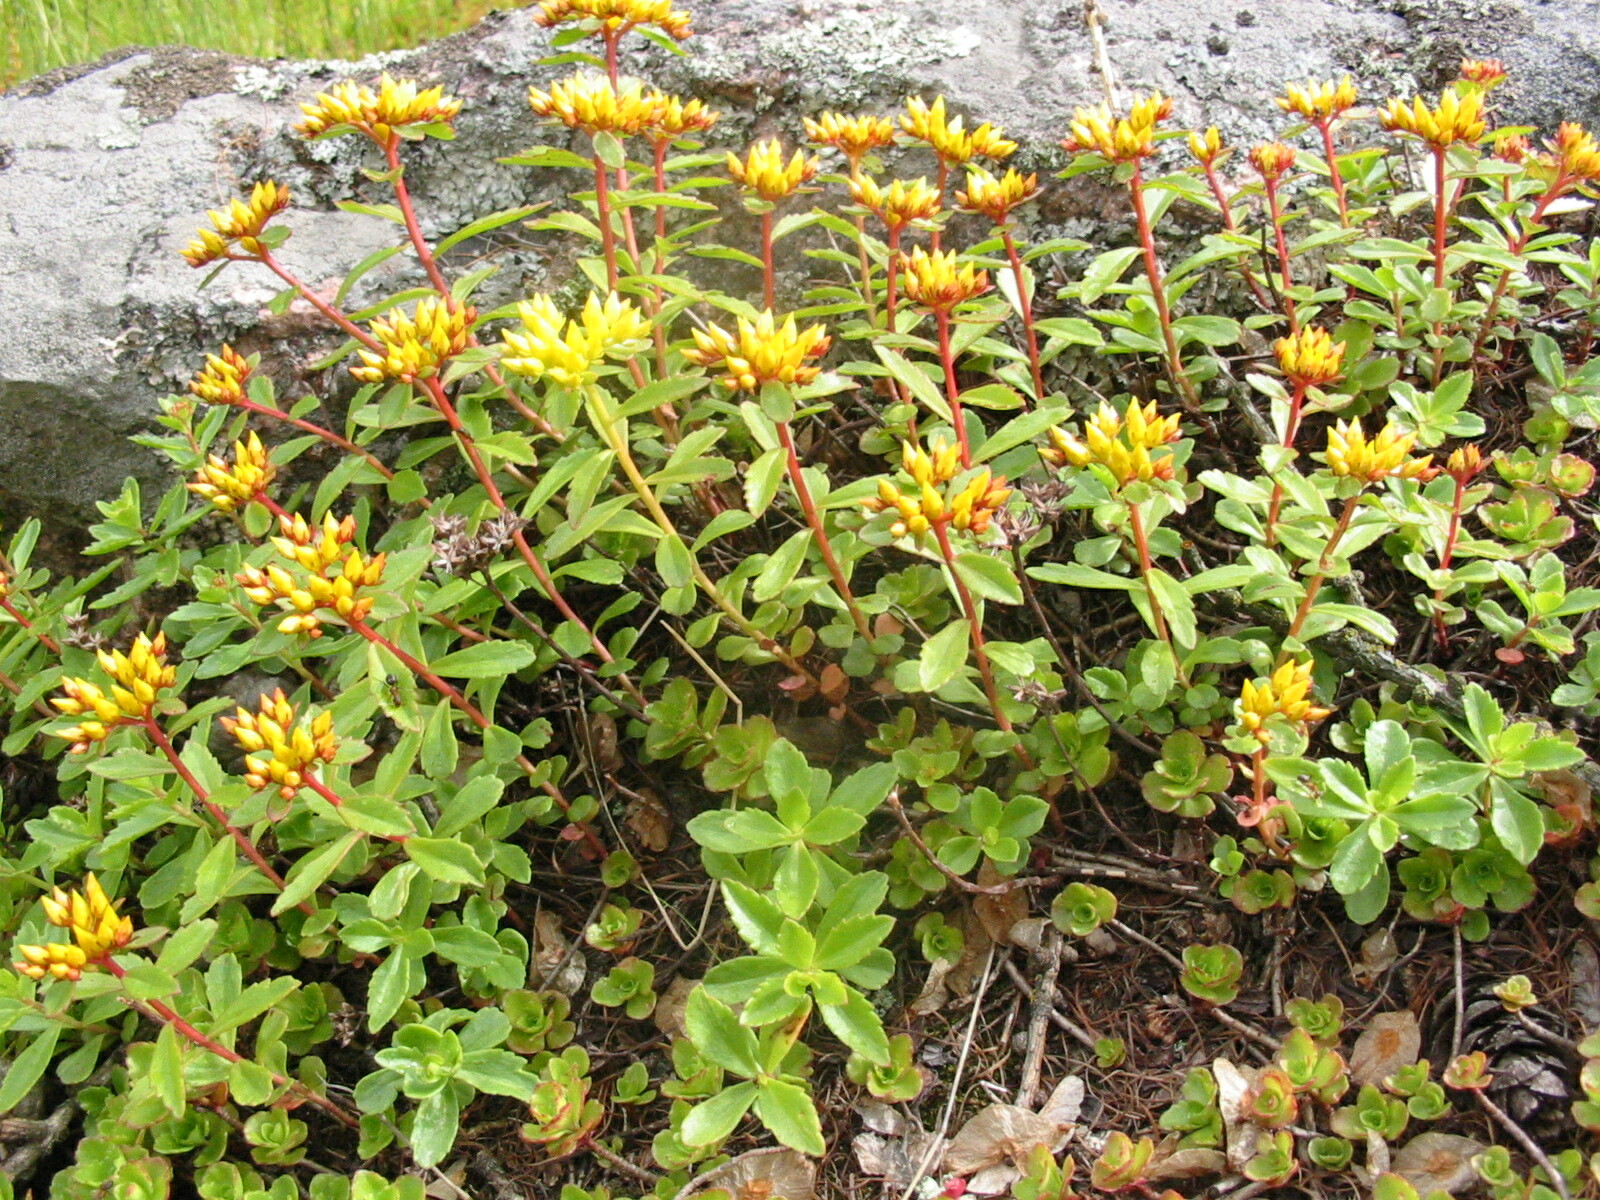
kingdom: Plantae
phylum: Tracheophyta
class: Magnoliopsida
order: Saxifragales
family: Crassulaceae
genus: Phedimus
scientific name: Phedimus kamtschaticus
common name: Orange stonecrop
